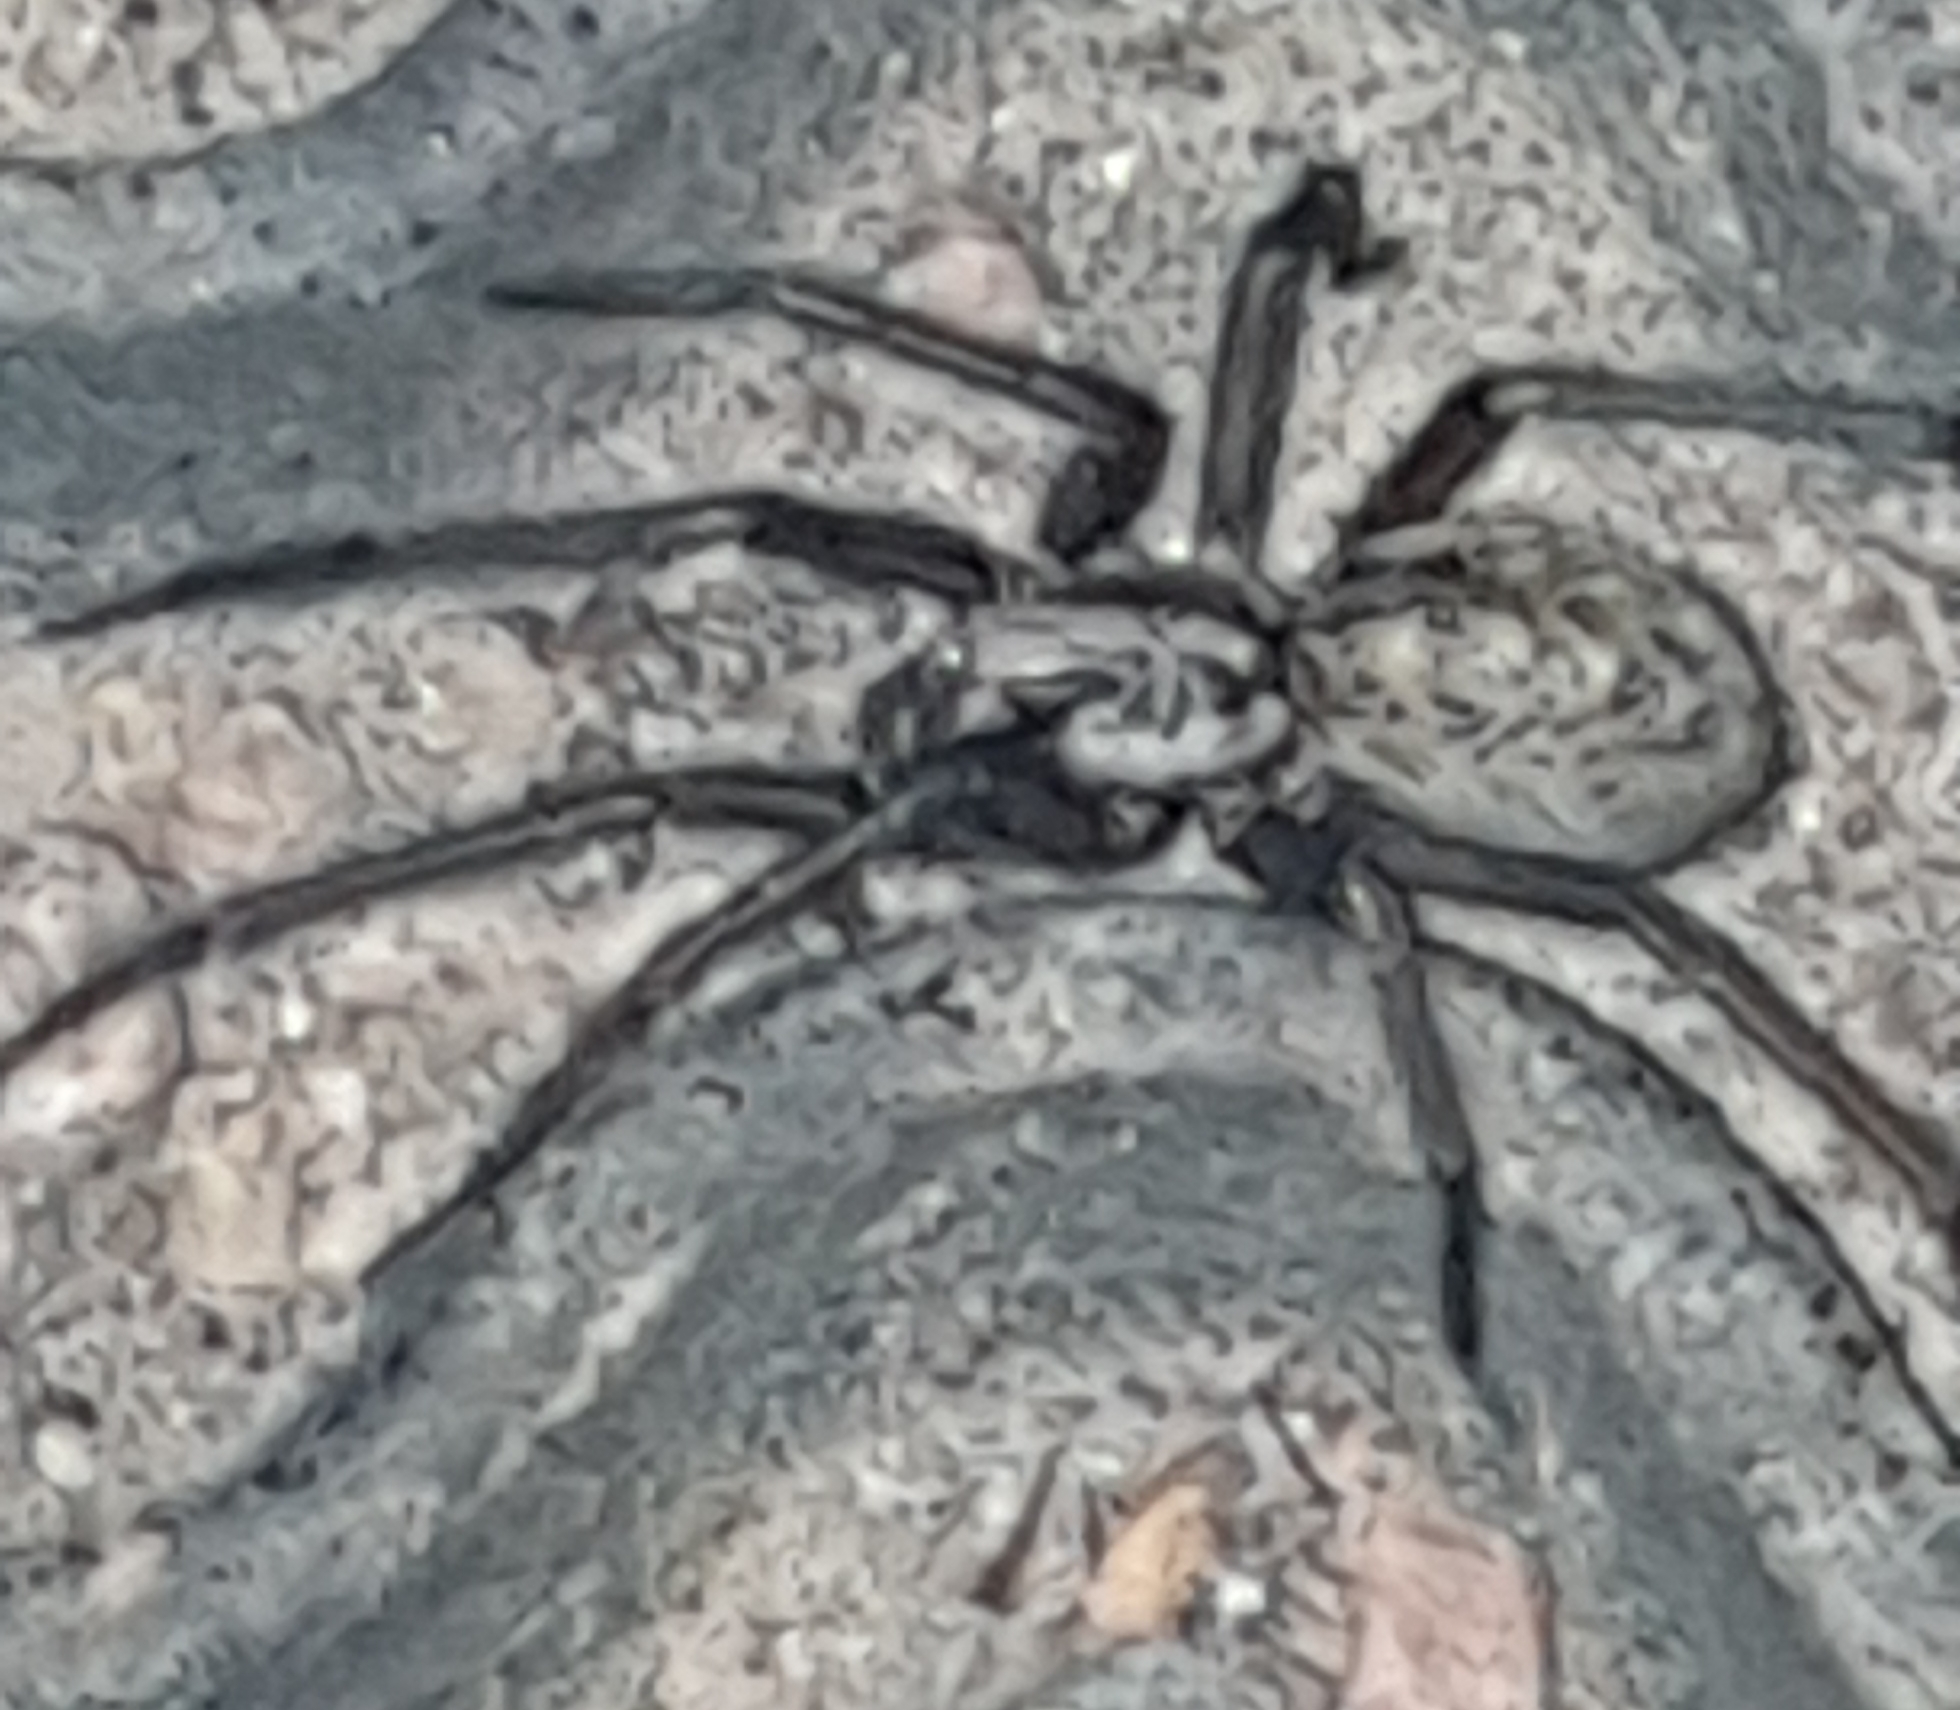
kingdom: Animalia
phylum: Arthropoda
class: Arachnida
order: Araneae
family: Agelenidae
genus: Eratigena
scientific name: Eratigena atrica
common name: Giant house spider
